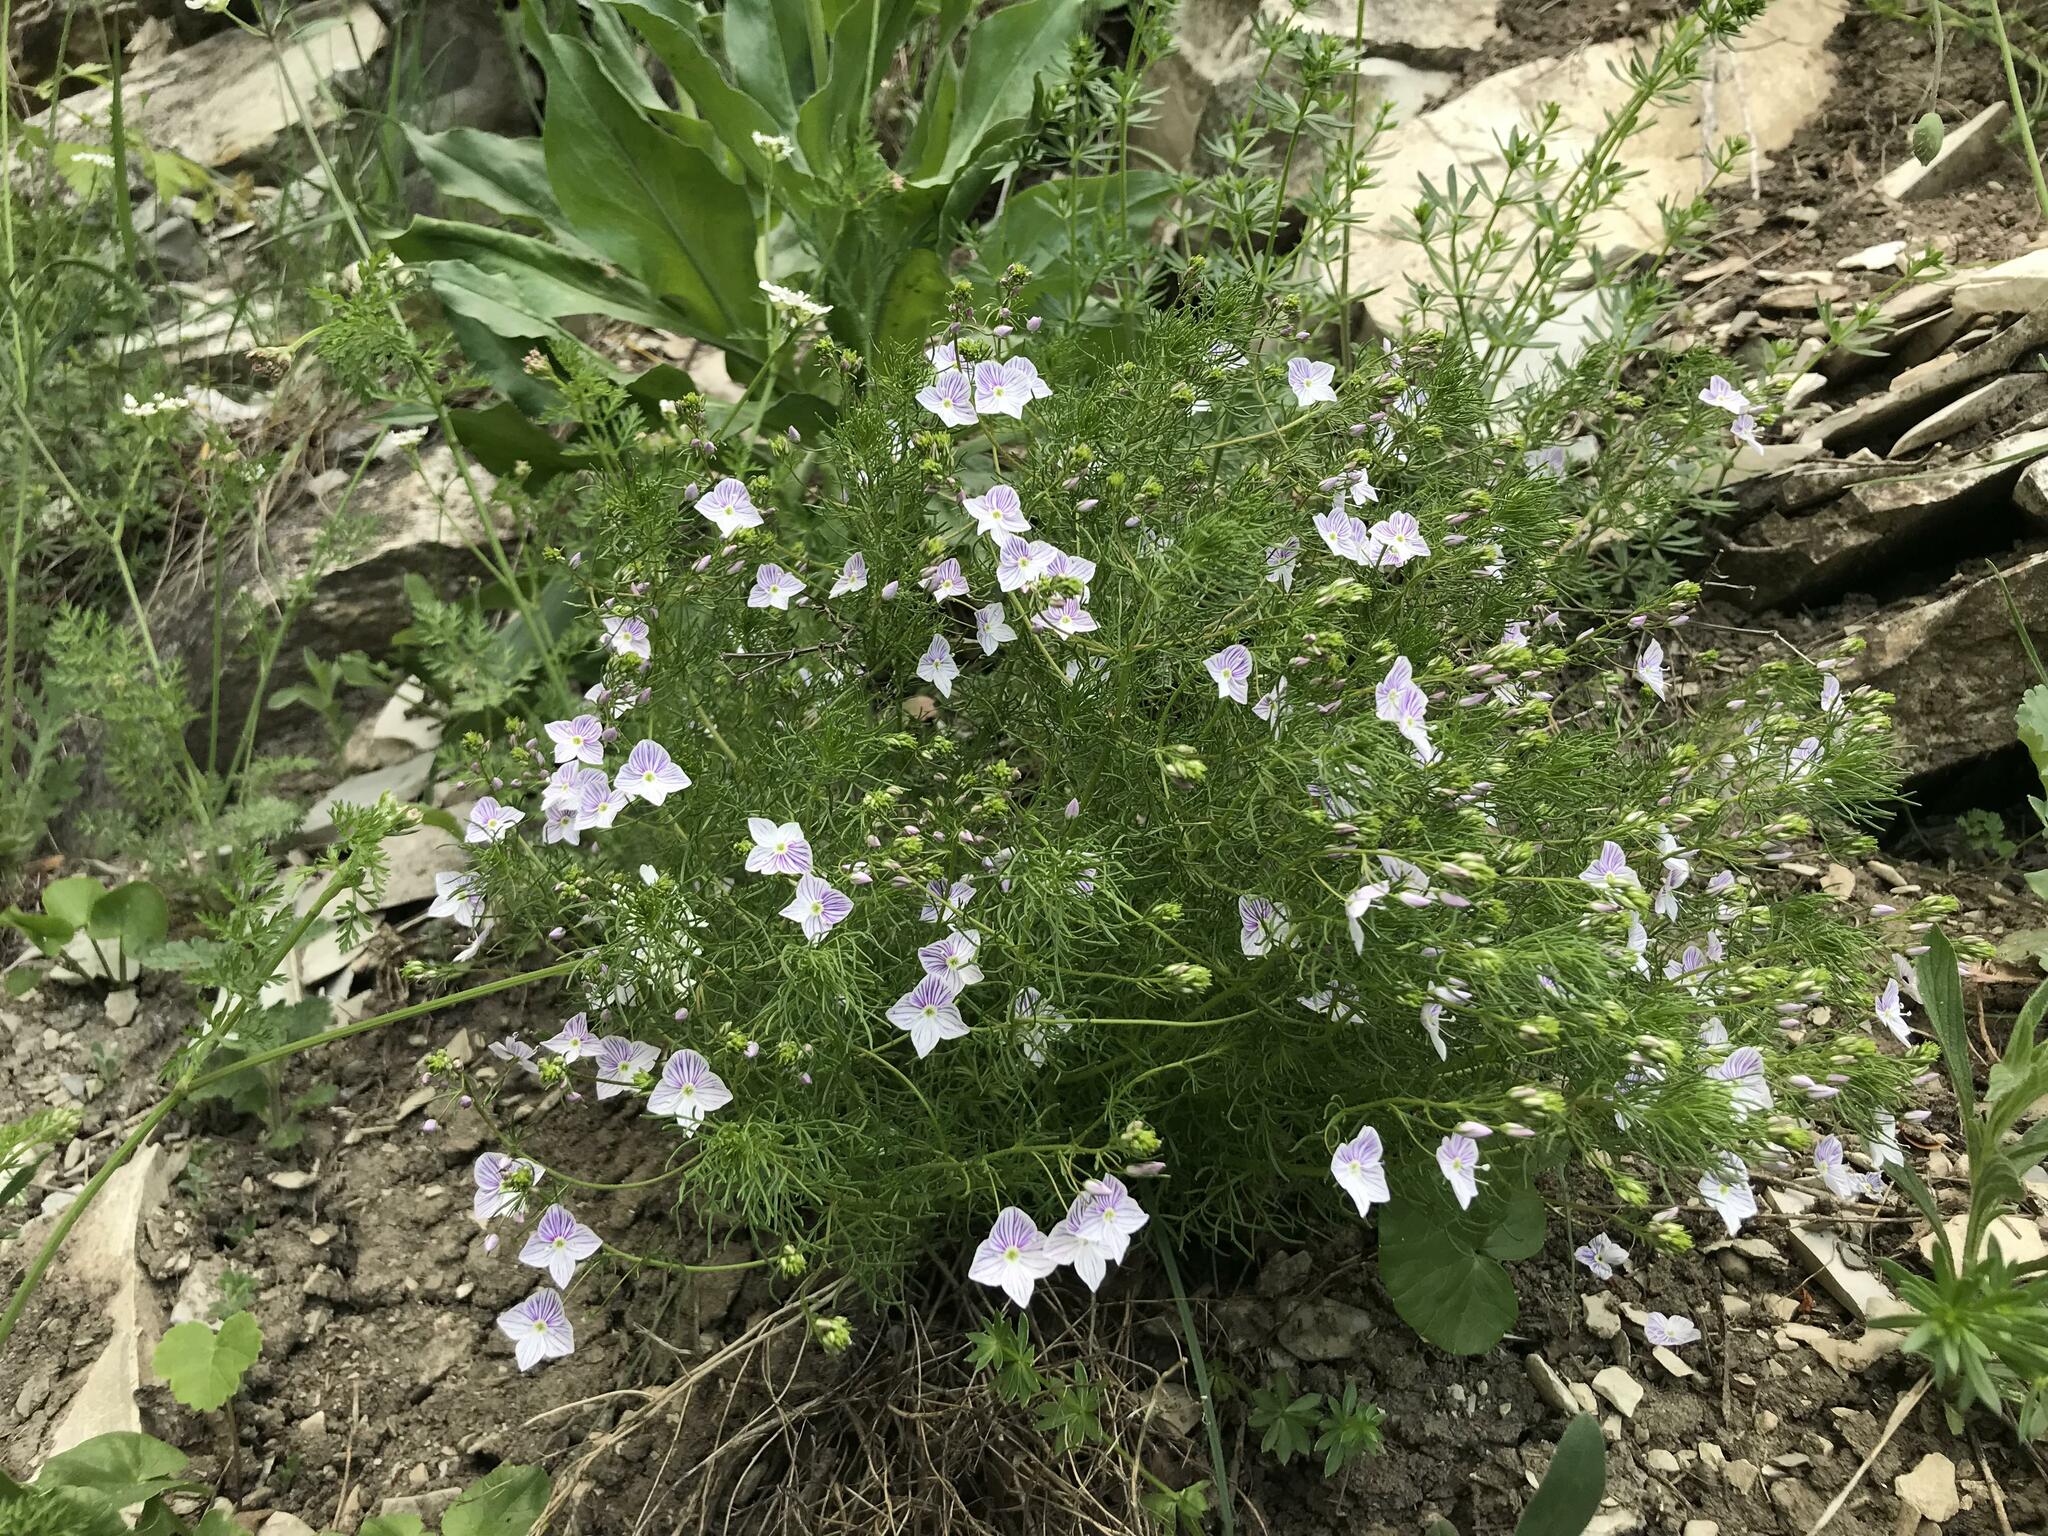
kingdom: Plantae
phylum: Tracheophyta
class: Magnoliopsida
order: Lamiales
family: Plantaginaceae
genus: Veronica
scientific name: Veronica filifolia
